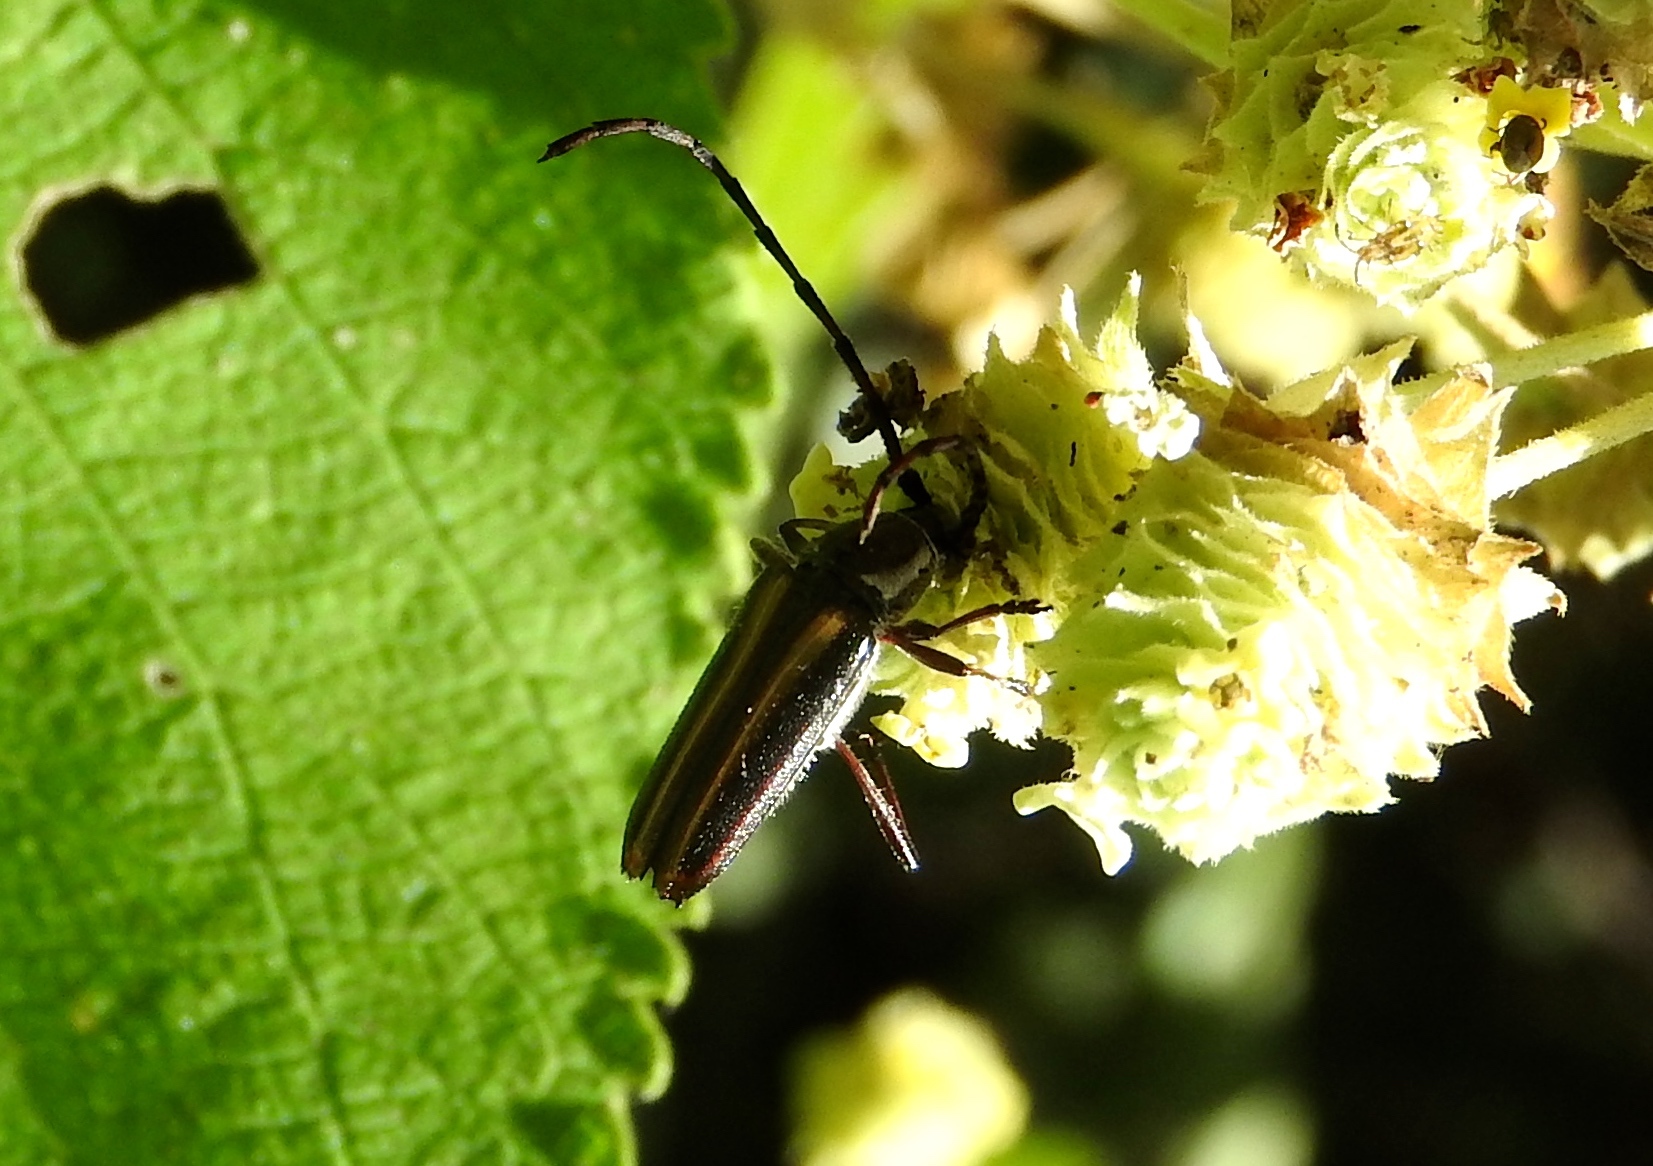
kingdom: Animalia
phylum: Arthropoda
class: Insecta
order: Coleoptera
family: Cerambycidae
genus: Sphaenothecus
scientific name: Sphaenothecus
